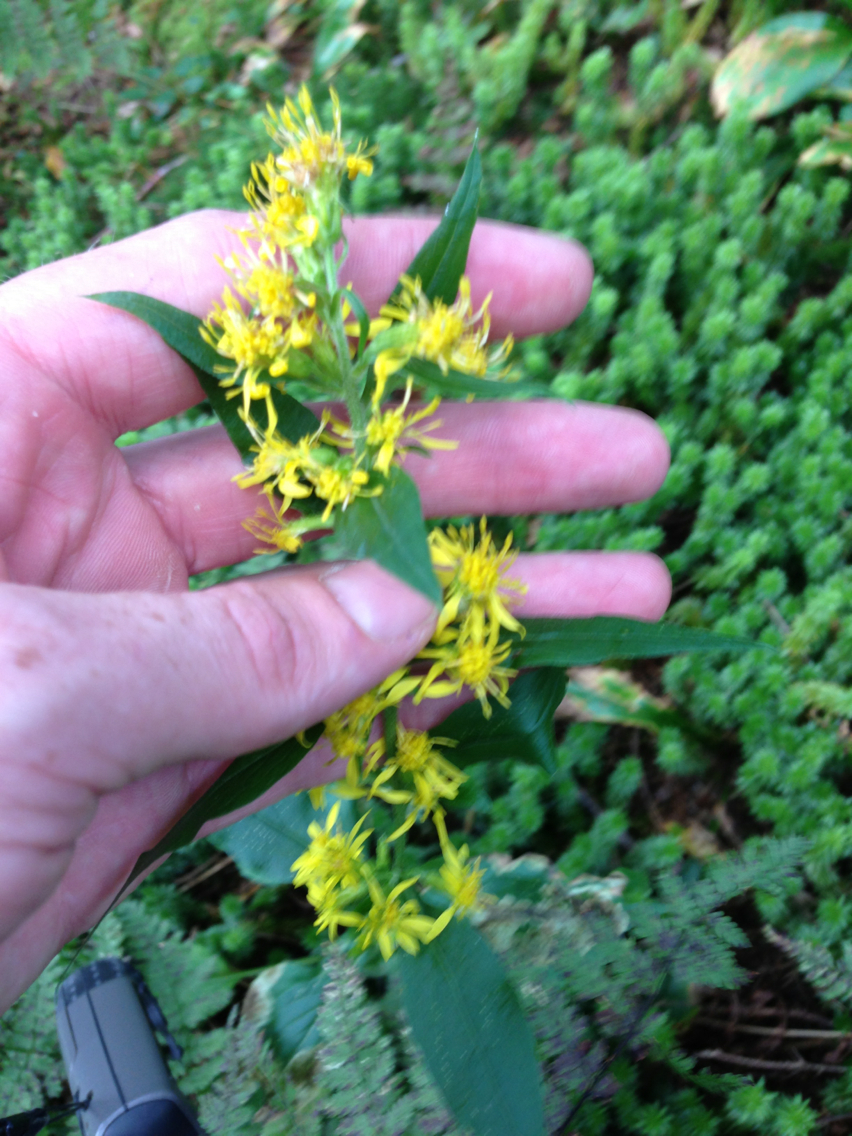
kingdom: Plantae
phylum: Tracheophyta
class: Magnoliopsida
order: Asterales
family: Asteraceae
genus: Solidago
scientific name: Solidago macrophylla
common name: Large-leaved goldenrod
